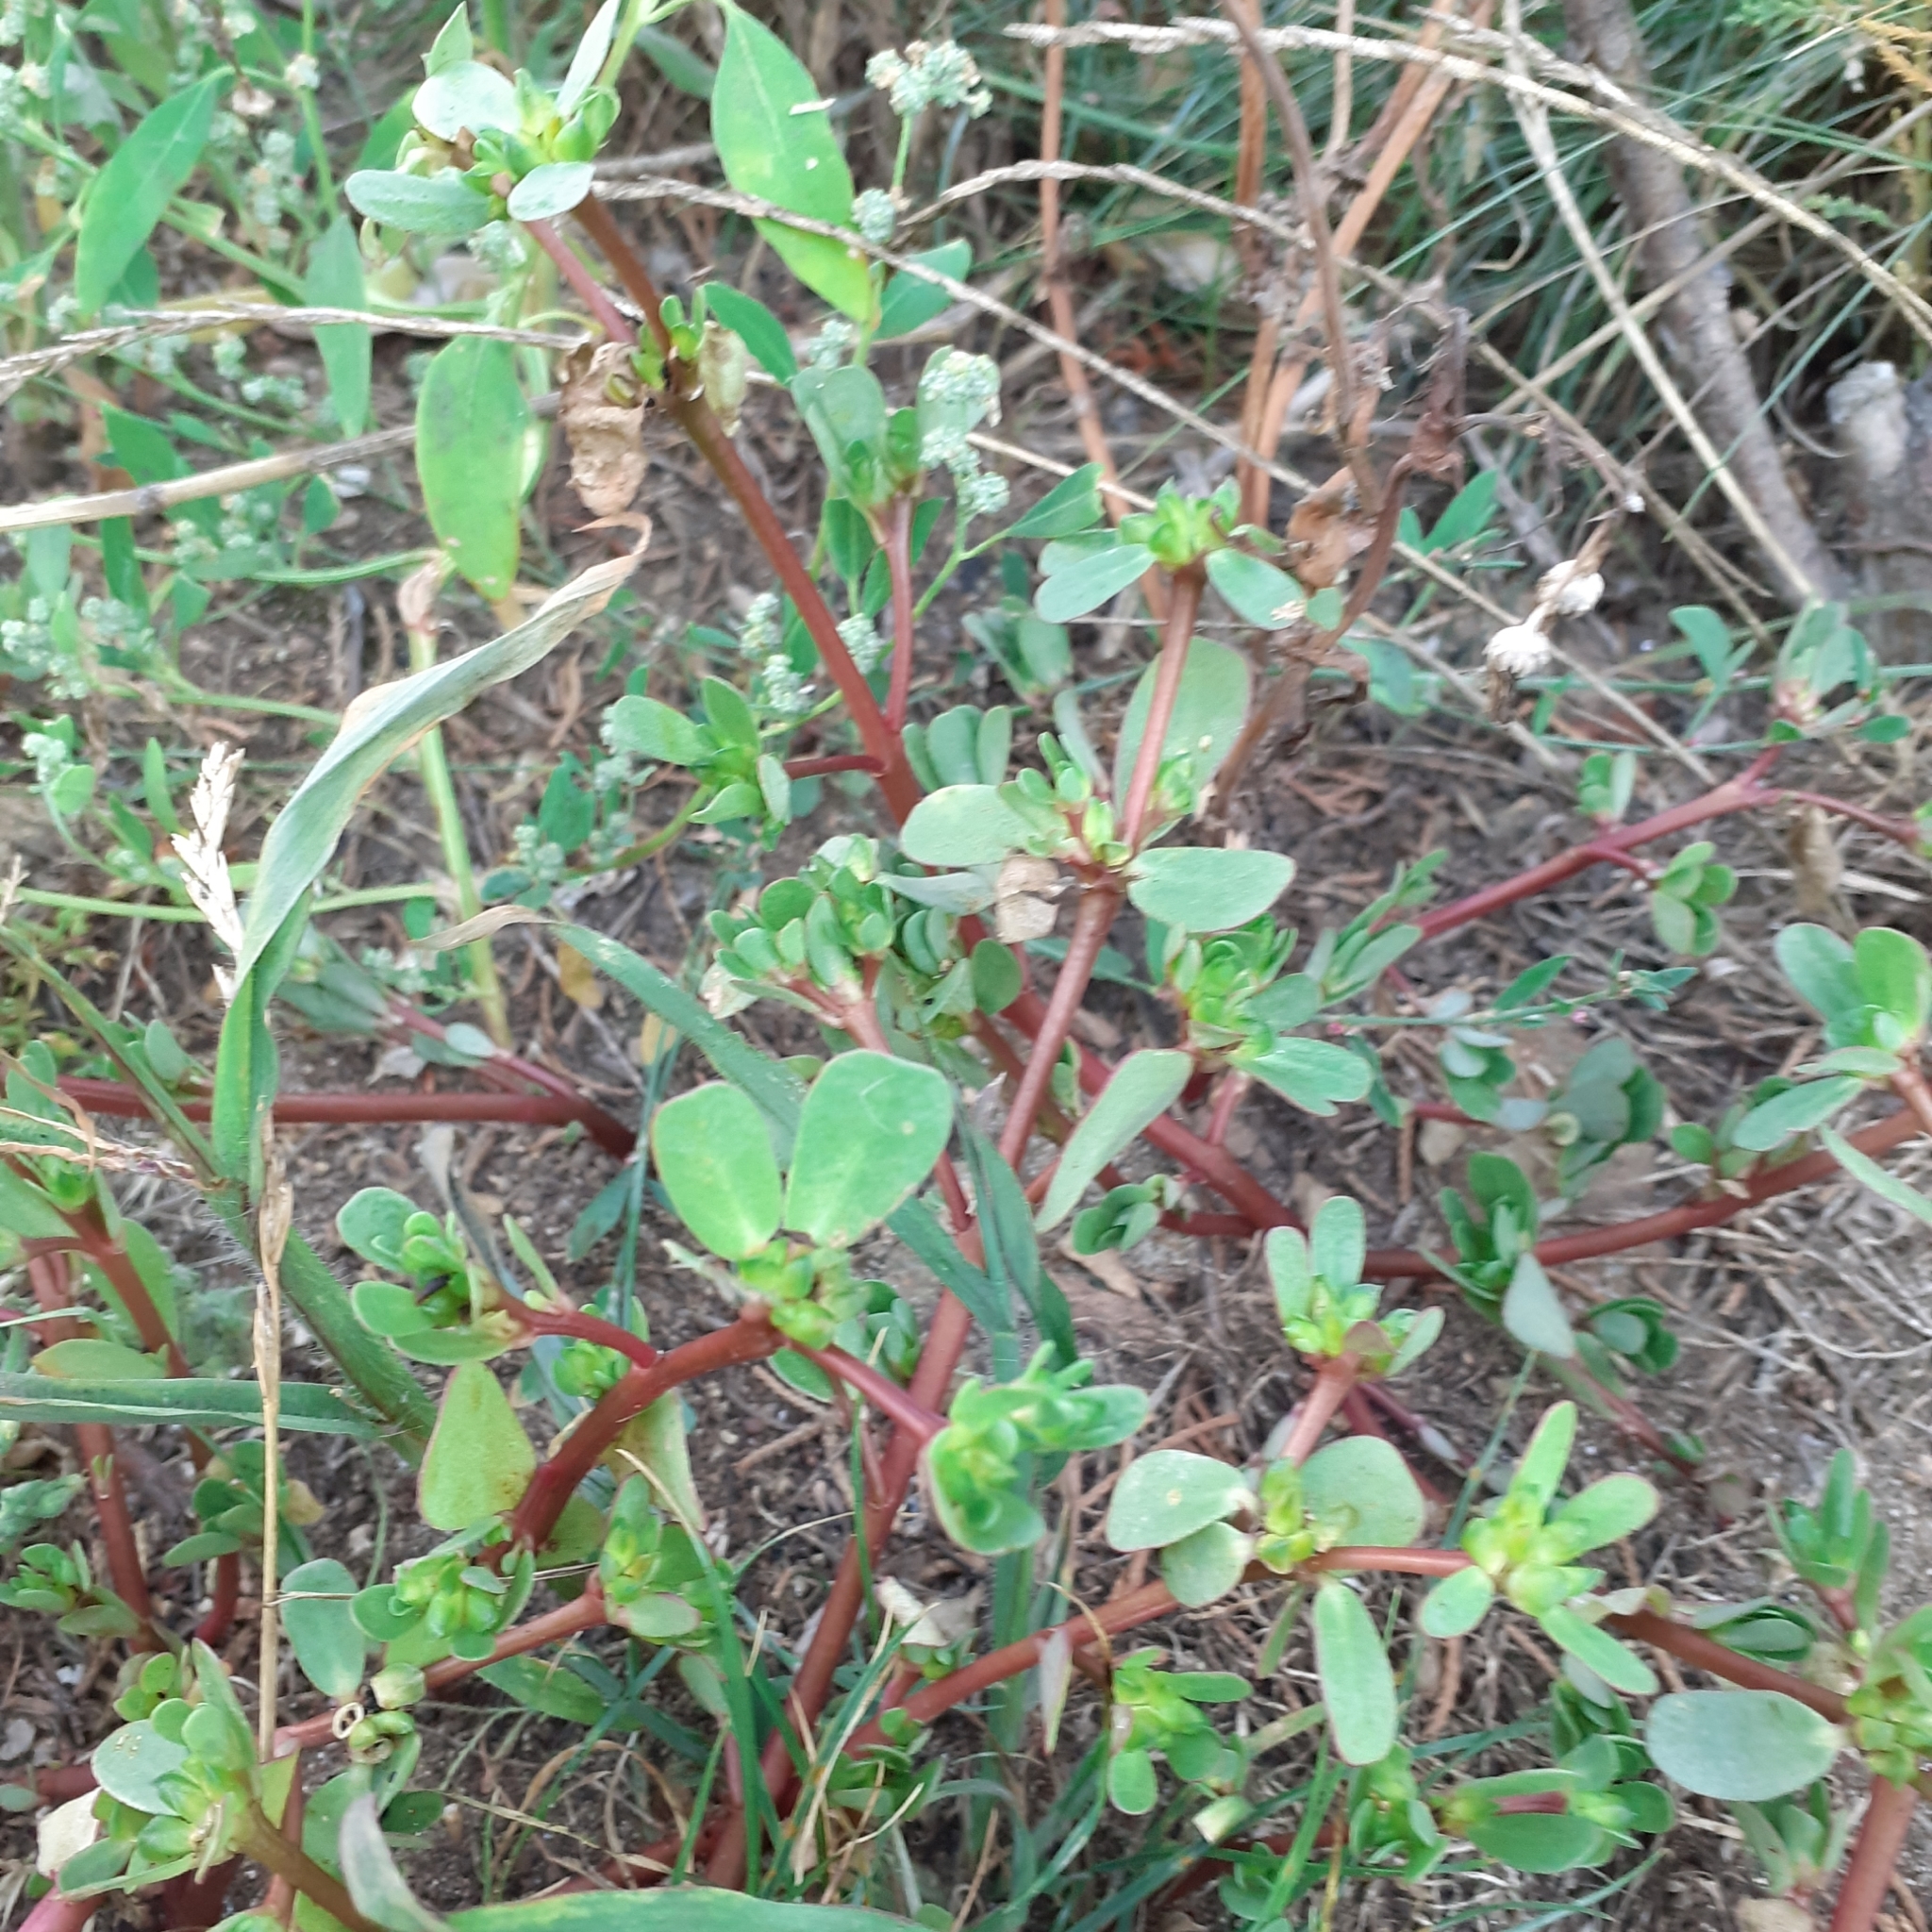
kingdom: Plantae
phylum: Tracheophyta
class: Magnoliopsida
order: Caryophyllales
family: Portulacaceae
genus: Portulaca
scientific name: Portulaca oleracea
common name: Common purslane
